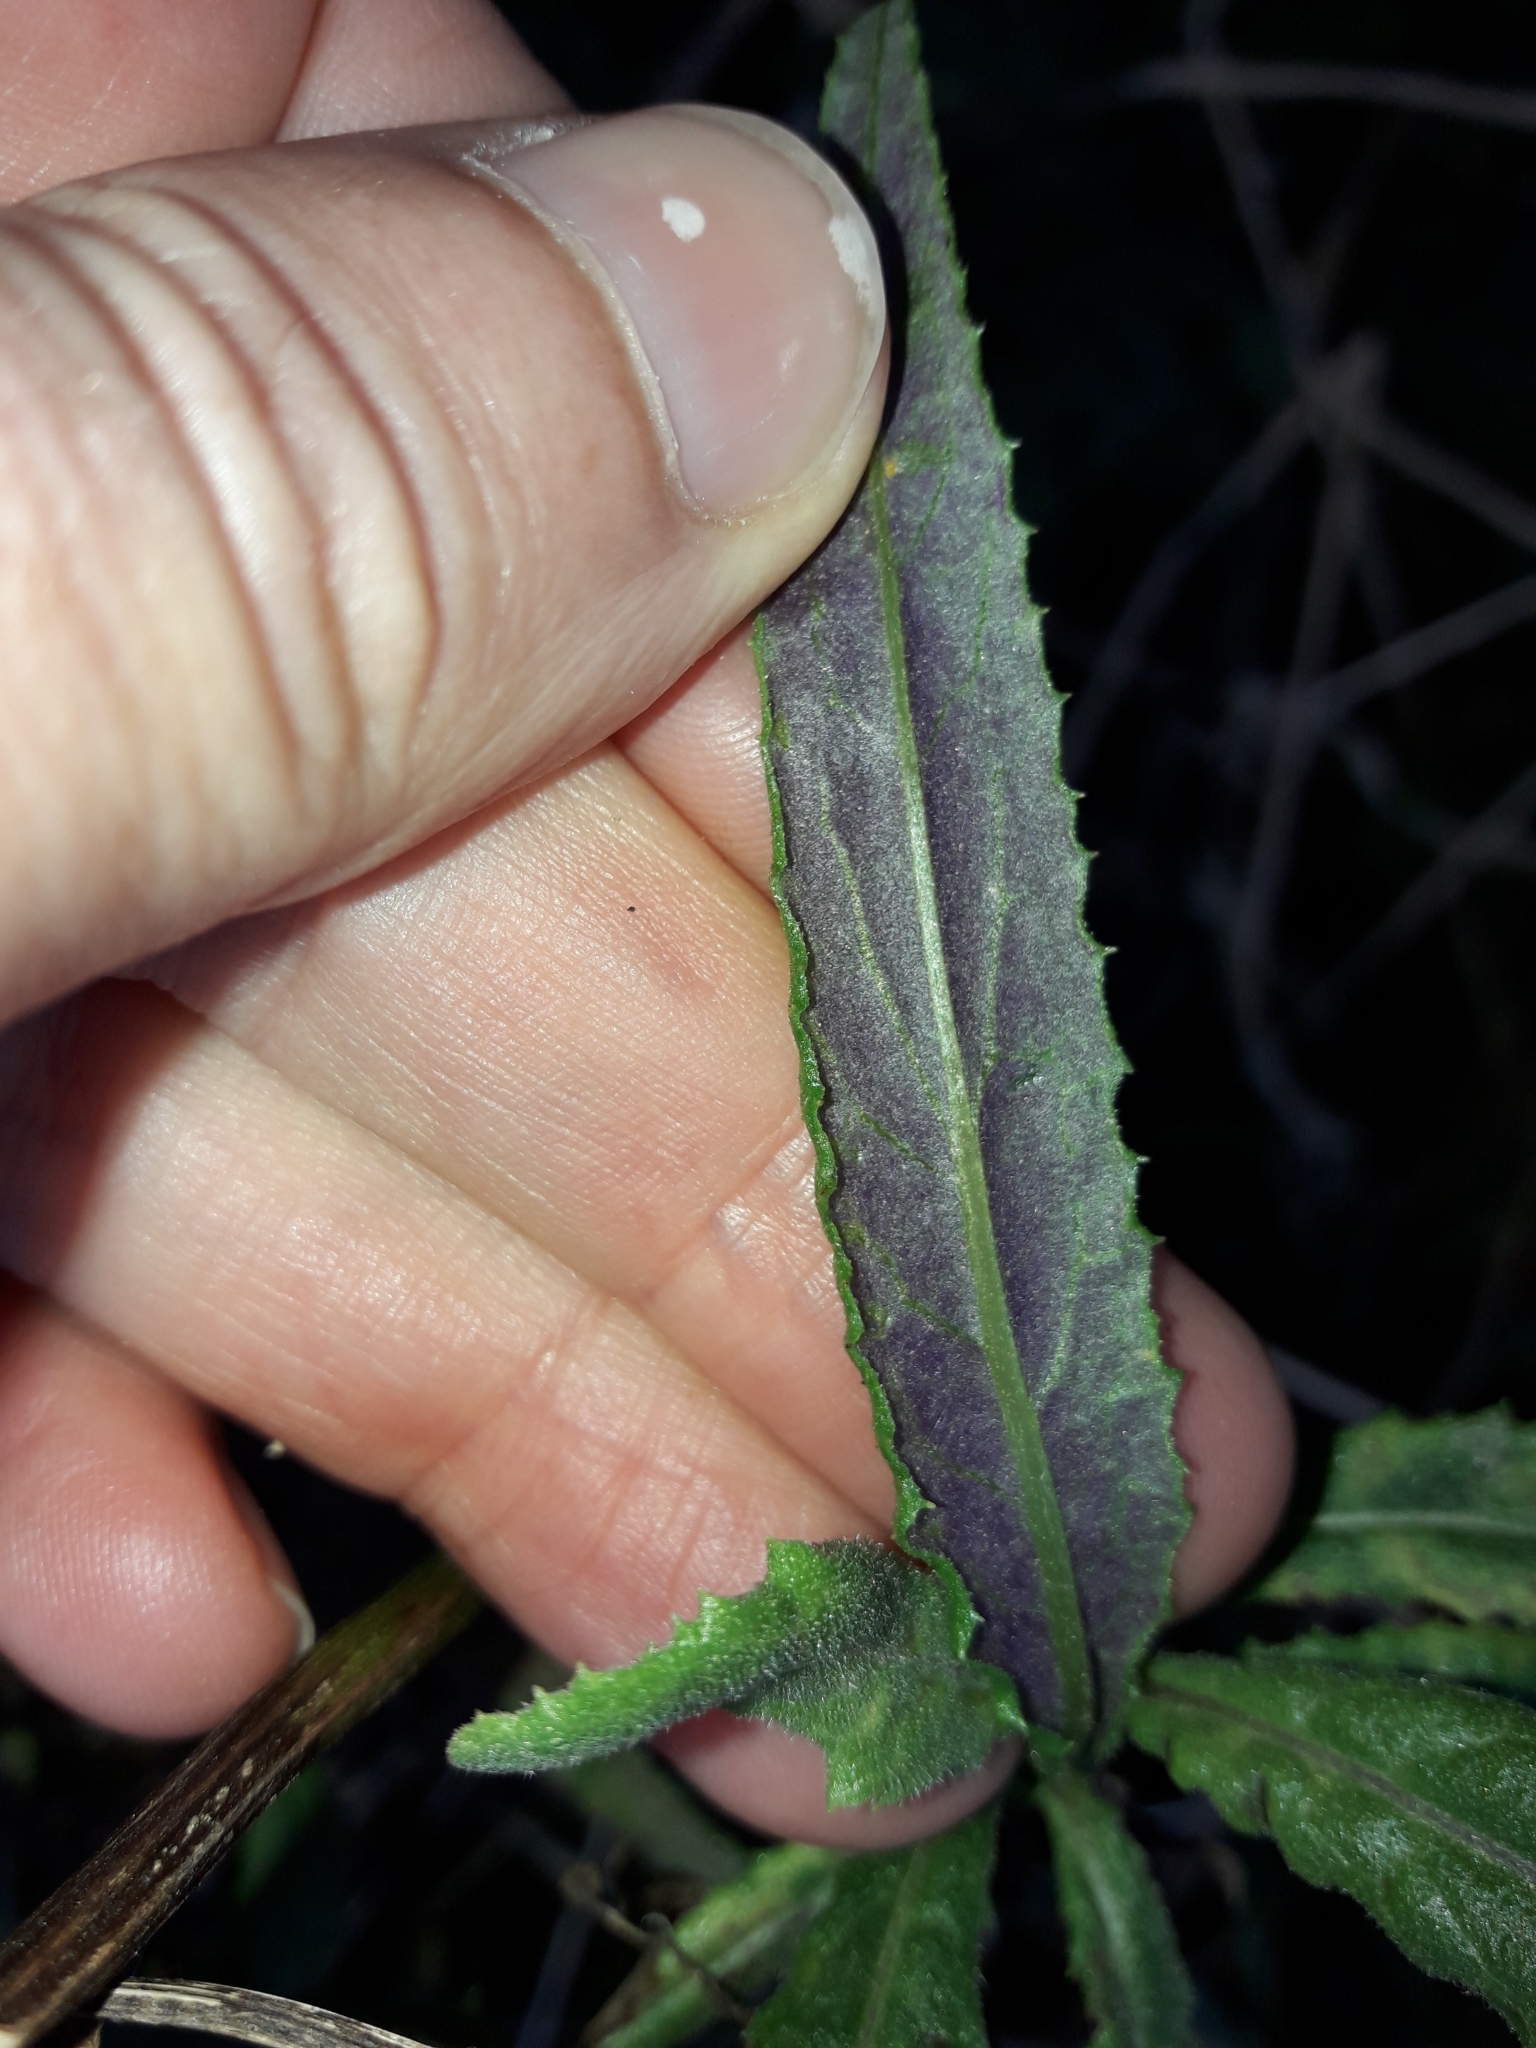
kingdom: Plantae
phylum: Tracheophyta
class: Magnoliopsida
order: Asterales
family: Asteraceae
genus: Senecio
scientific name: Senecio minimus
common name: Toothed fireweed
